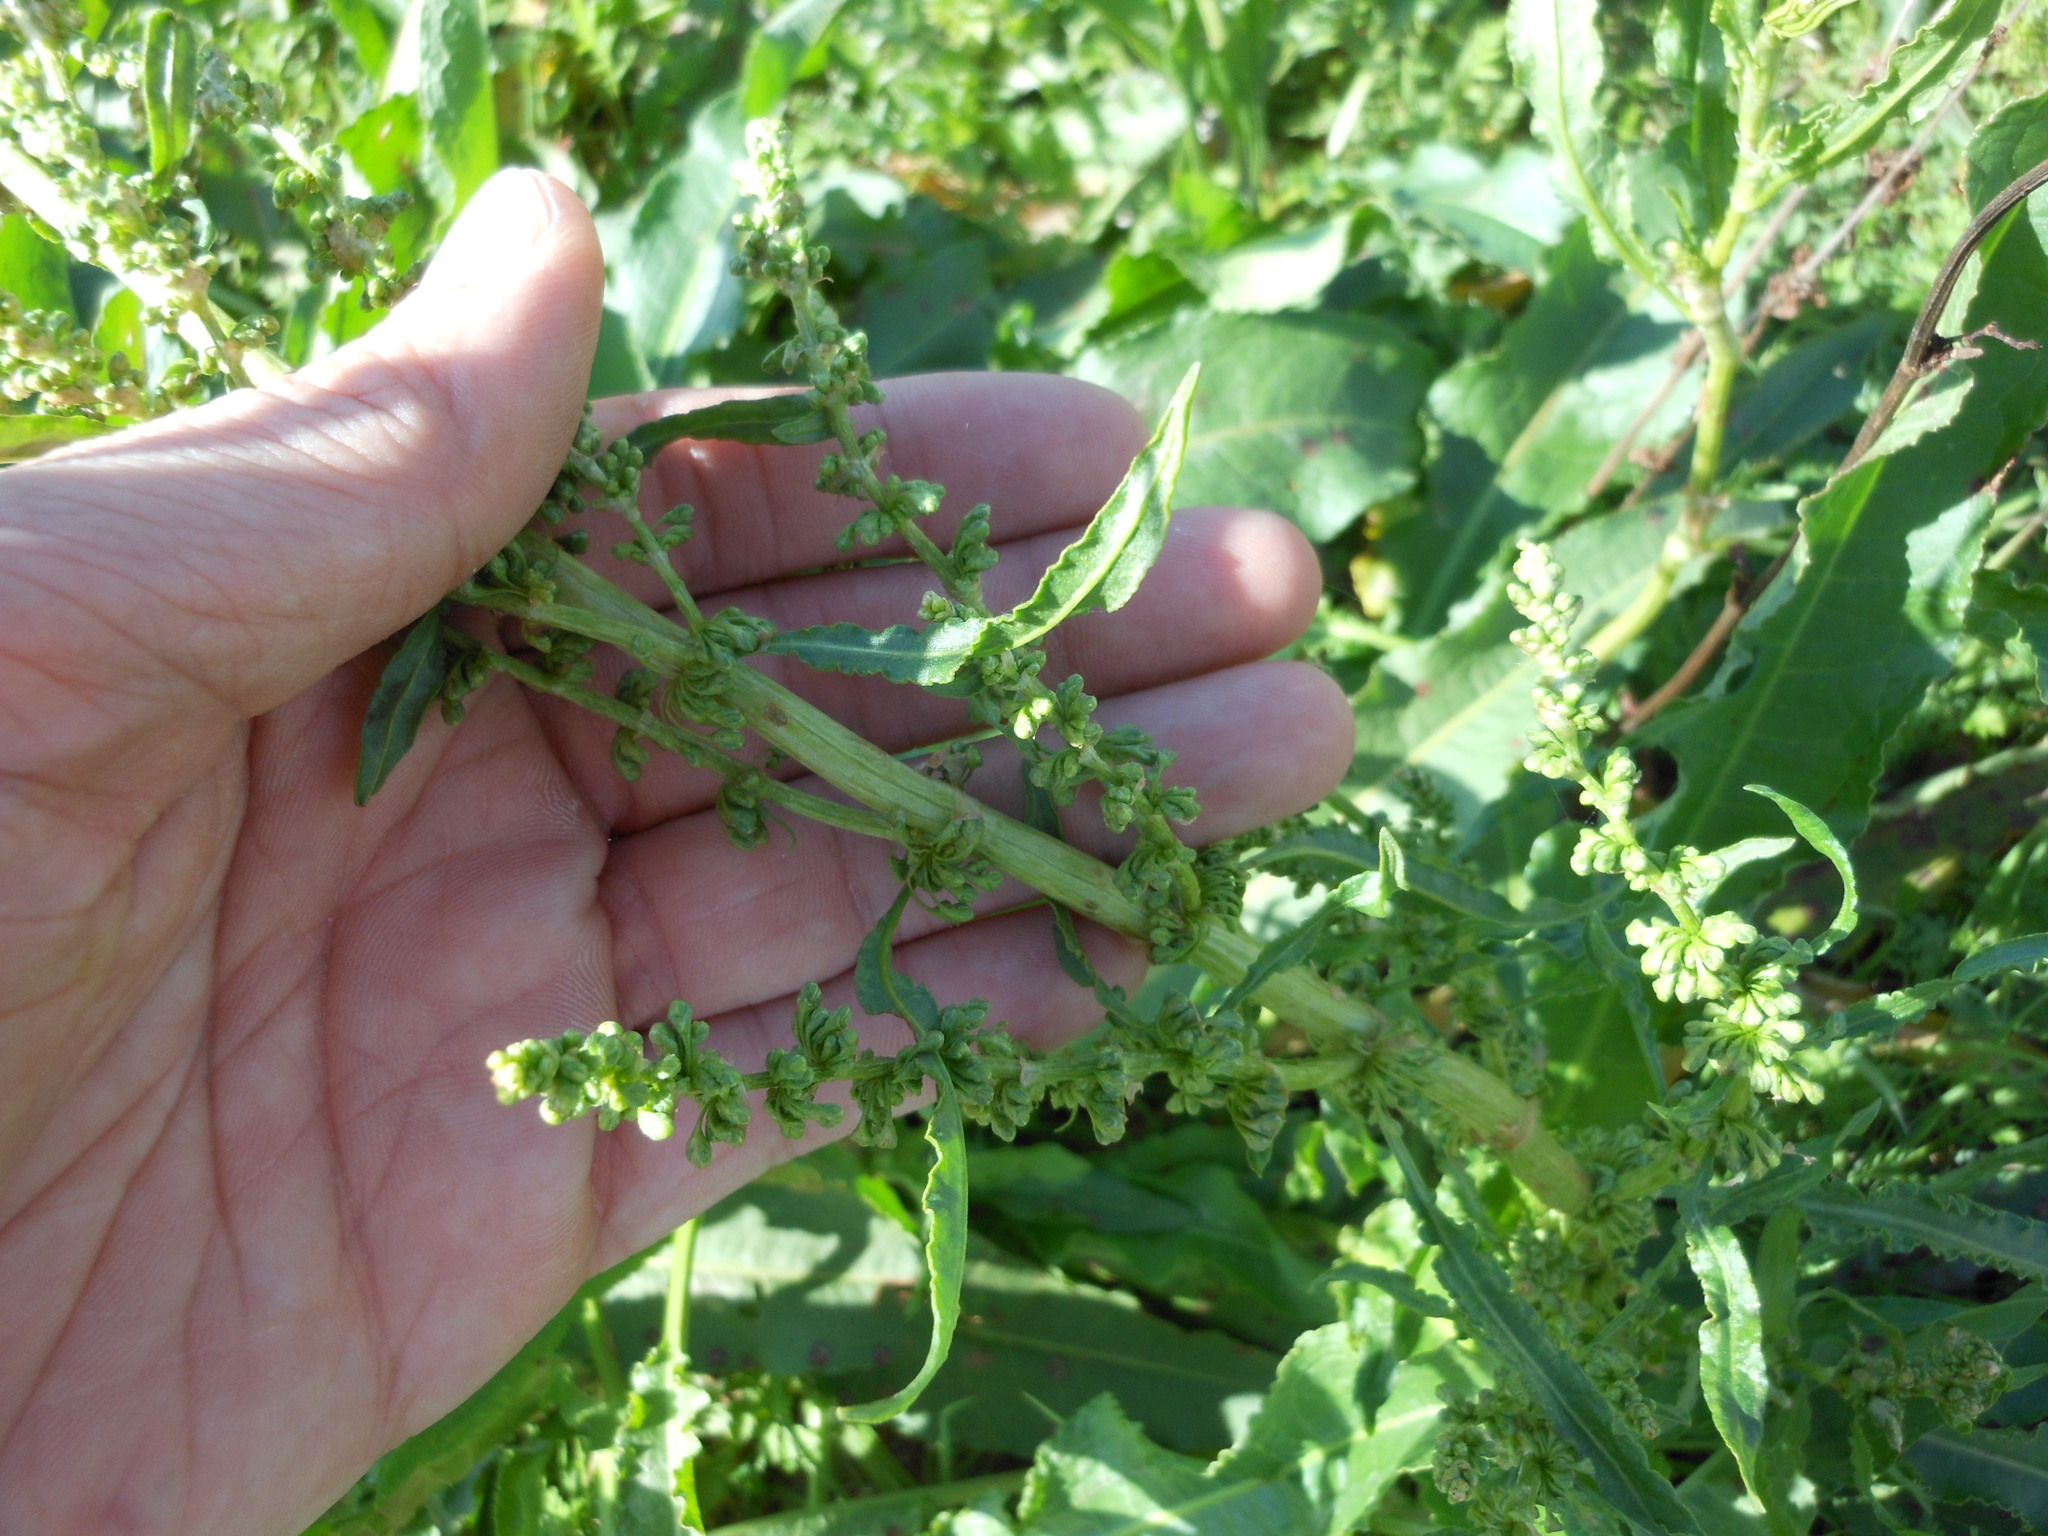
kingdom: Plantae
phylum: Tracheophyta
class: Magnoliopsida
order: Caryophyllales
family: Polygonaceae
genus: Rumex
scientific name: Rumex crispus
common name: Curled dock
